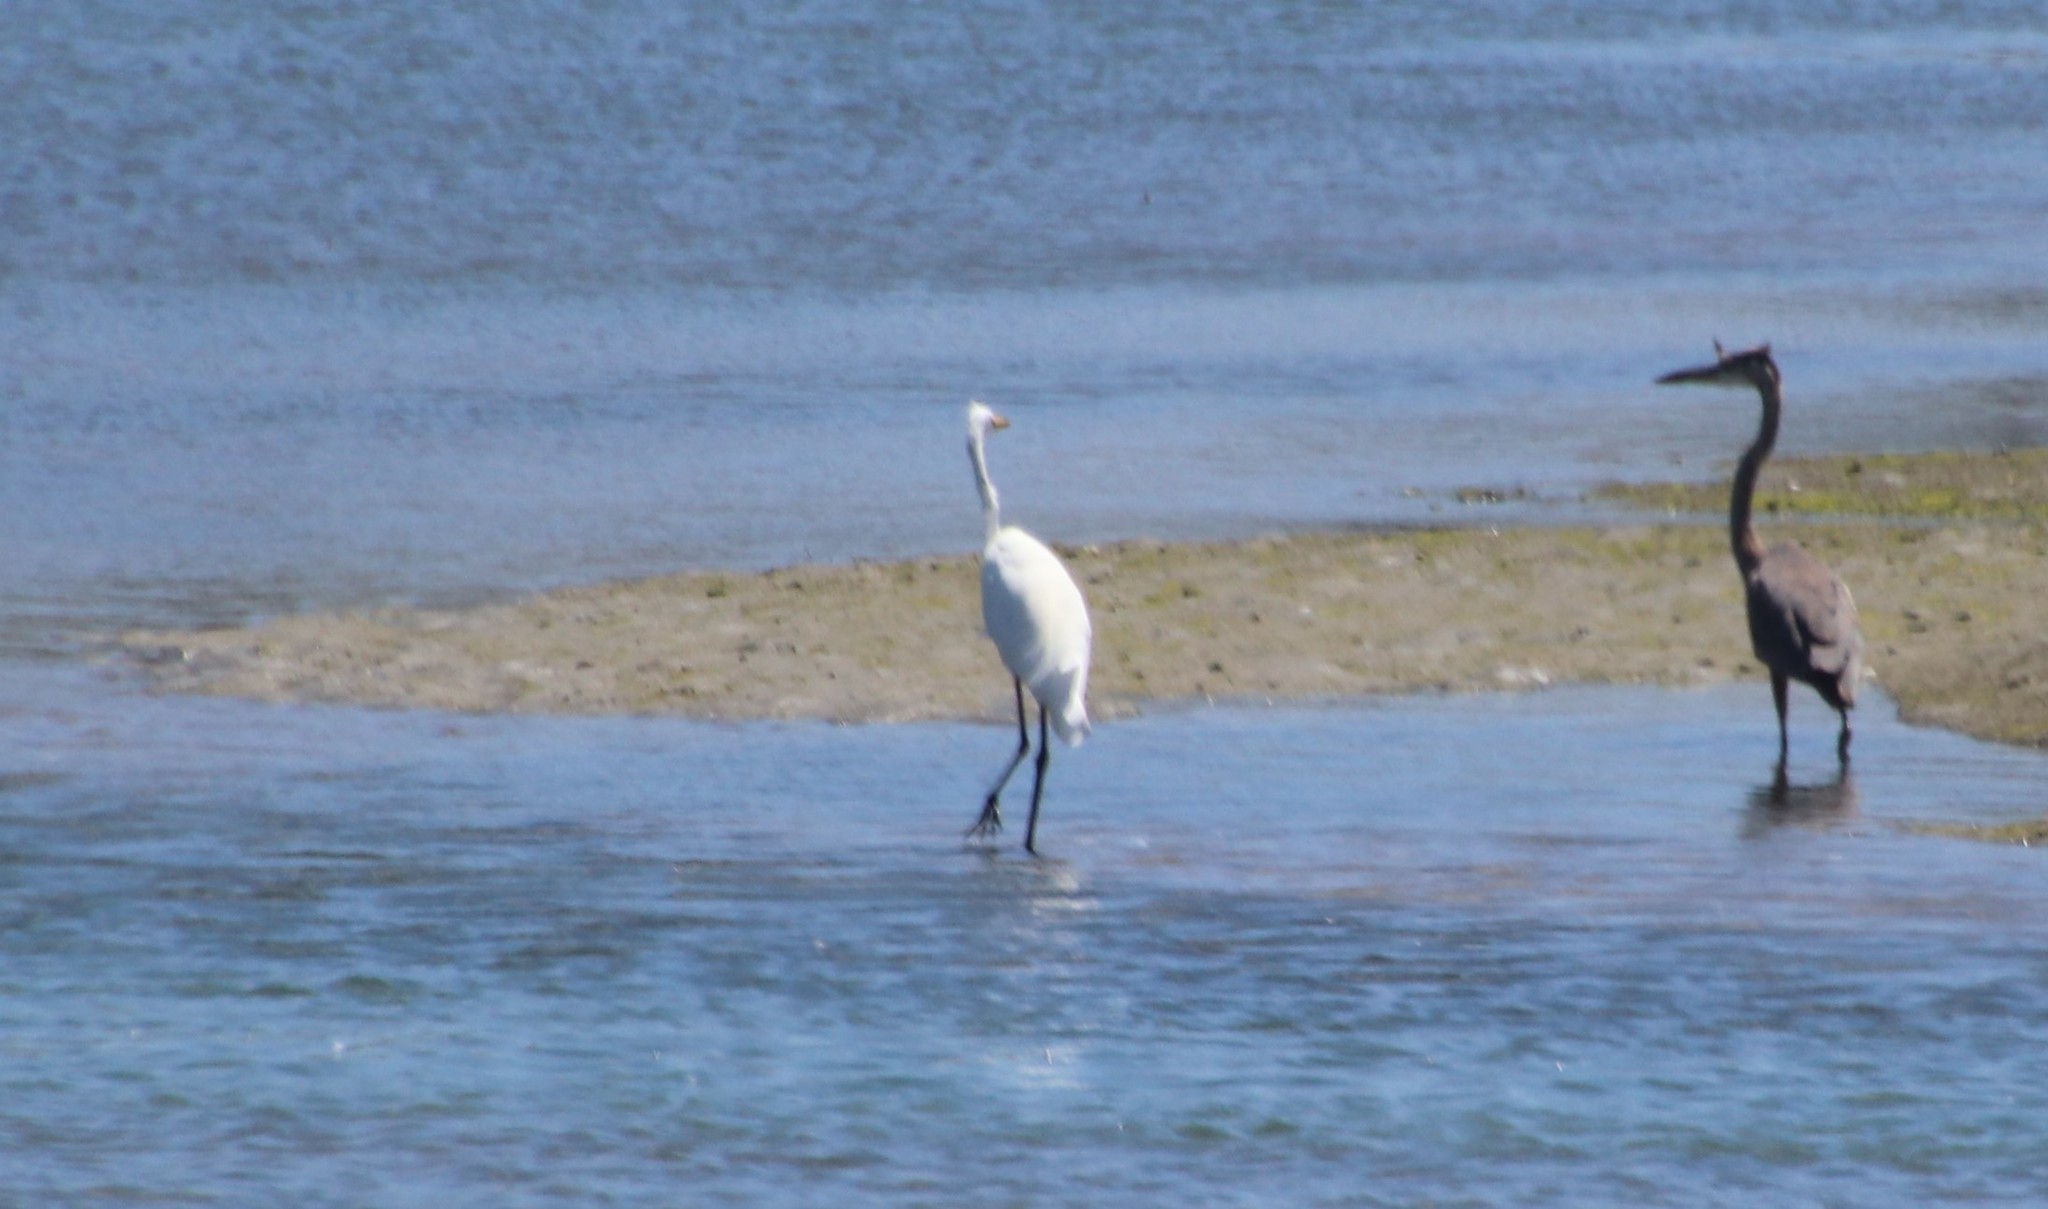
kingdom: Animalia
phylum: Chordata
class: Aves
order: Pelecaniformes
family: Ardeidae
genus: Ardea
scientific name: Ardea alba
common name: Great egret
